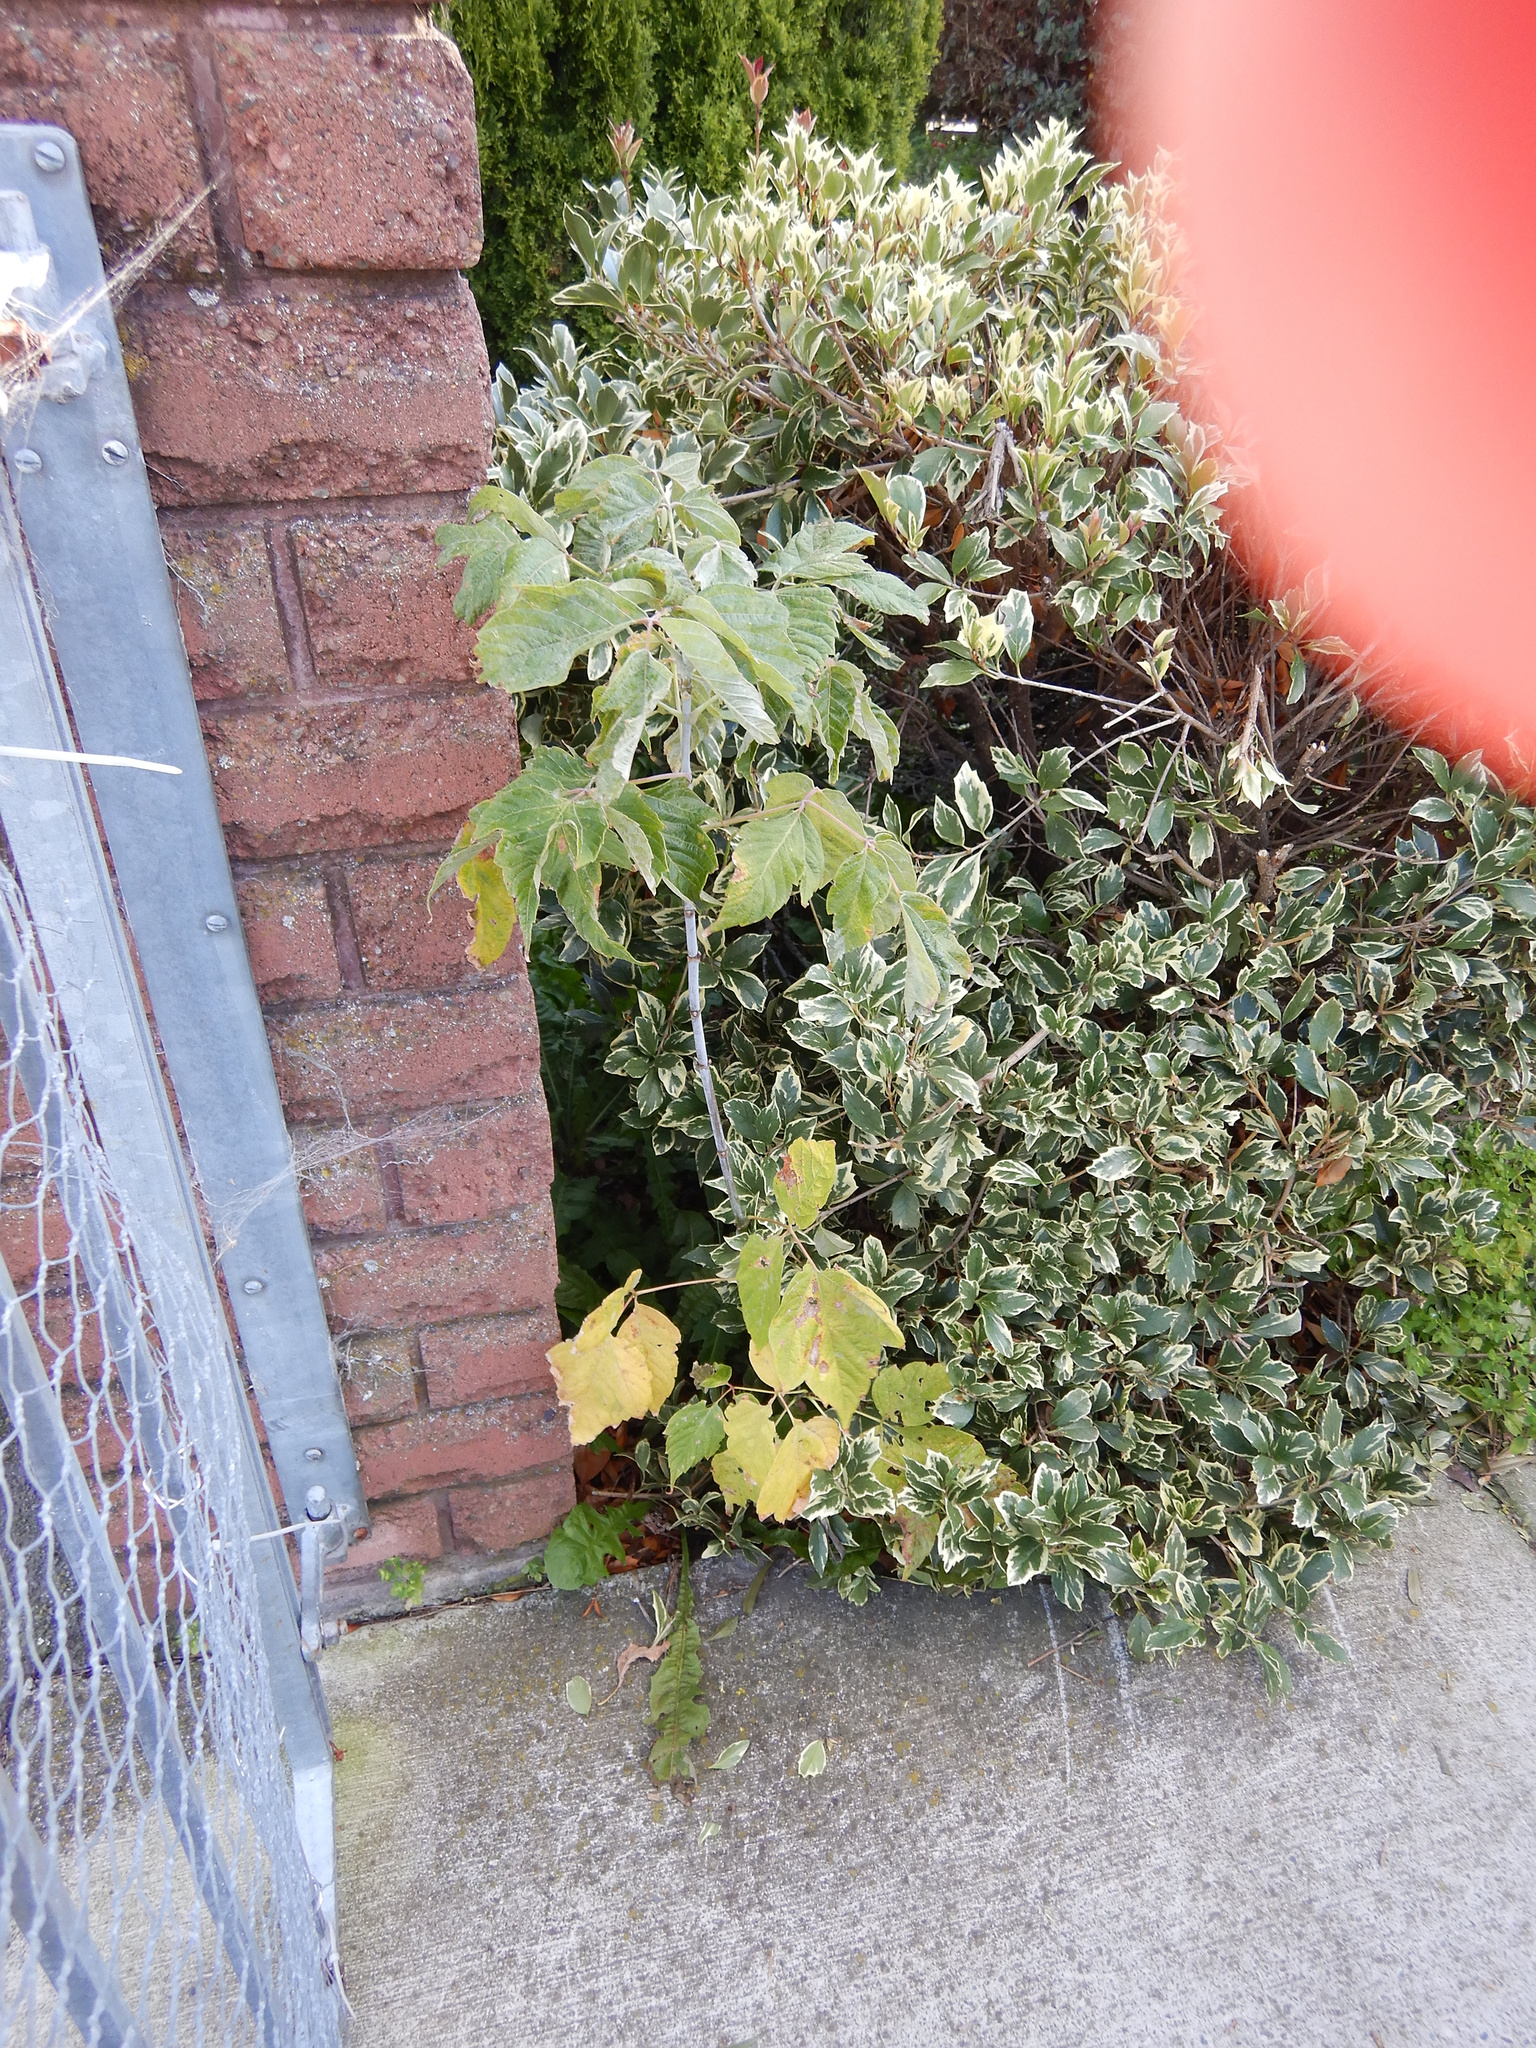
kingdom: Plantae
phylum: Tracheophyta
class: Magnoliopsida
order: Sapindales
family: Sapindaceae
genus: Acer
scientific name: Acer negundo
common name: Ashleaf maple
